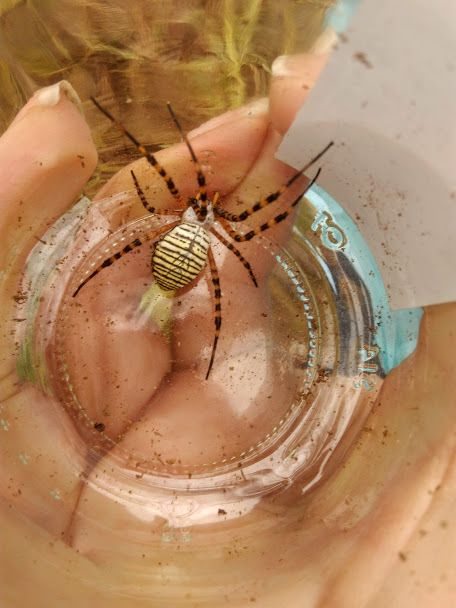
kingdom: Animalia
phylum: Arthropoda
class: Arachnida
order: Araneae
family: Araneidae
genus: Argiope
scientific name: Argiope trifasciata
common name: Banded garden spider
